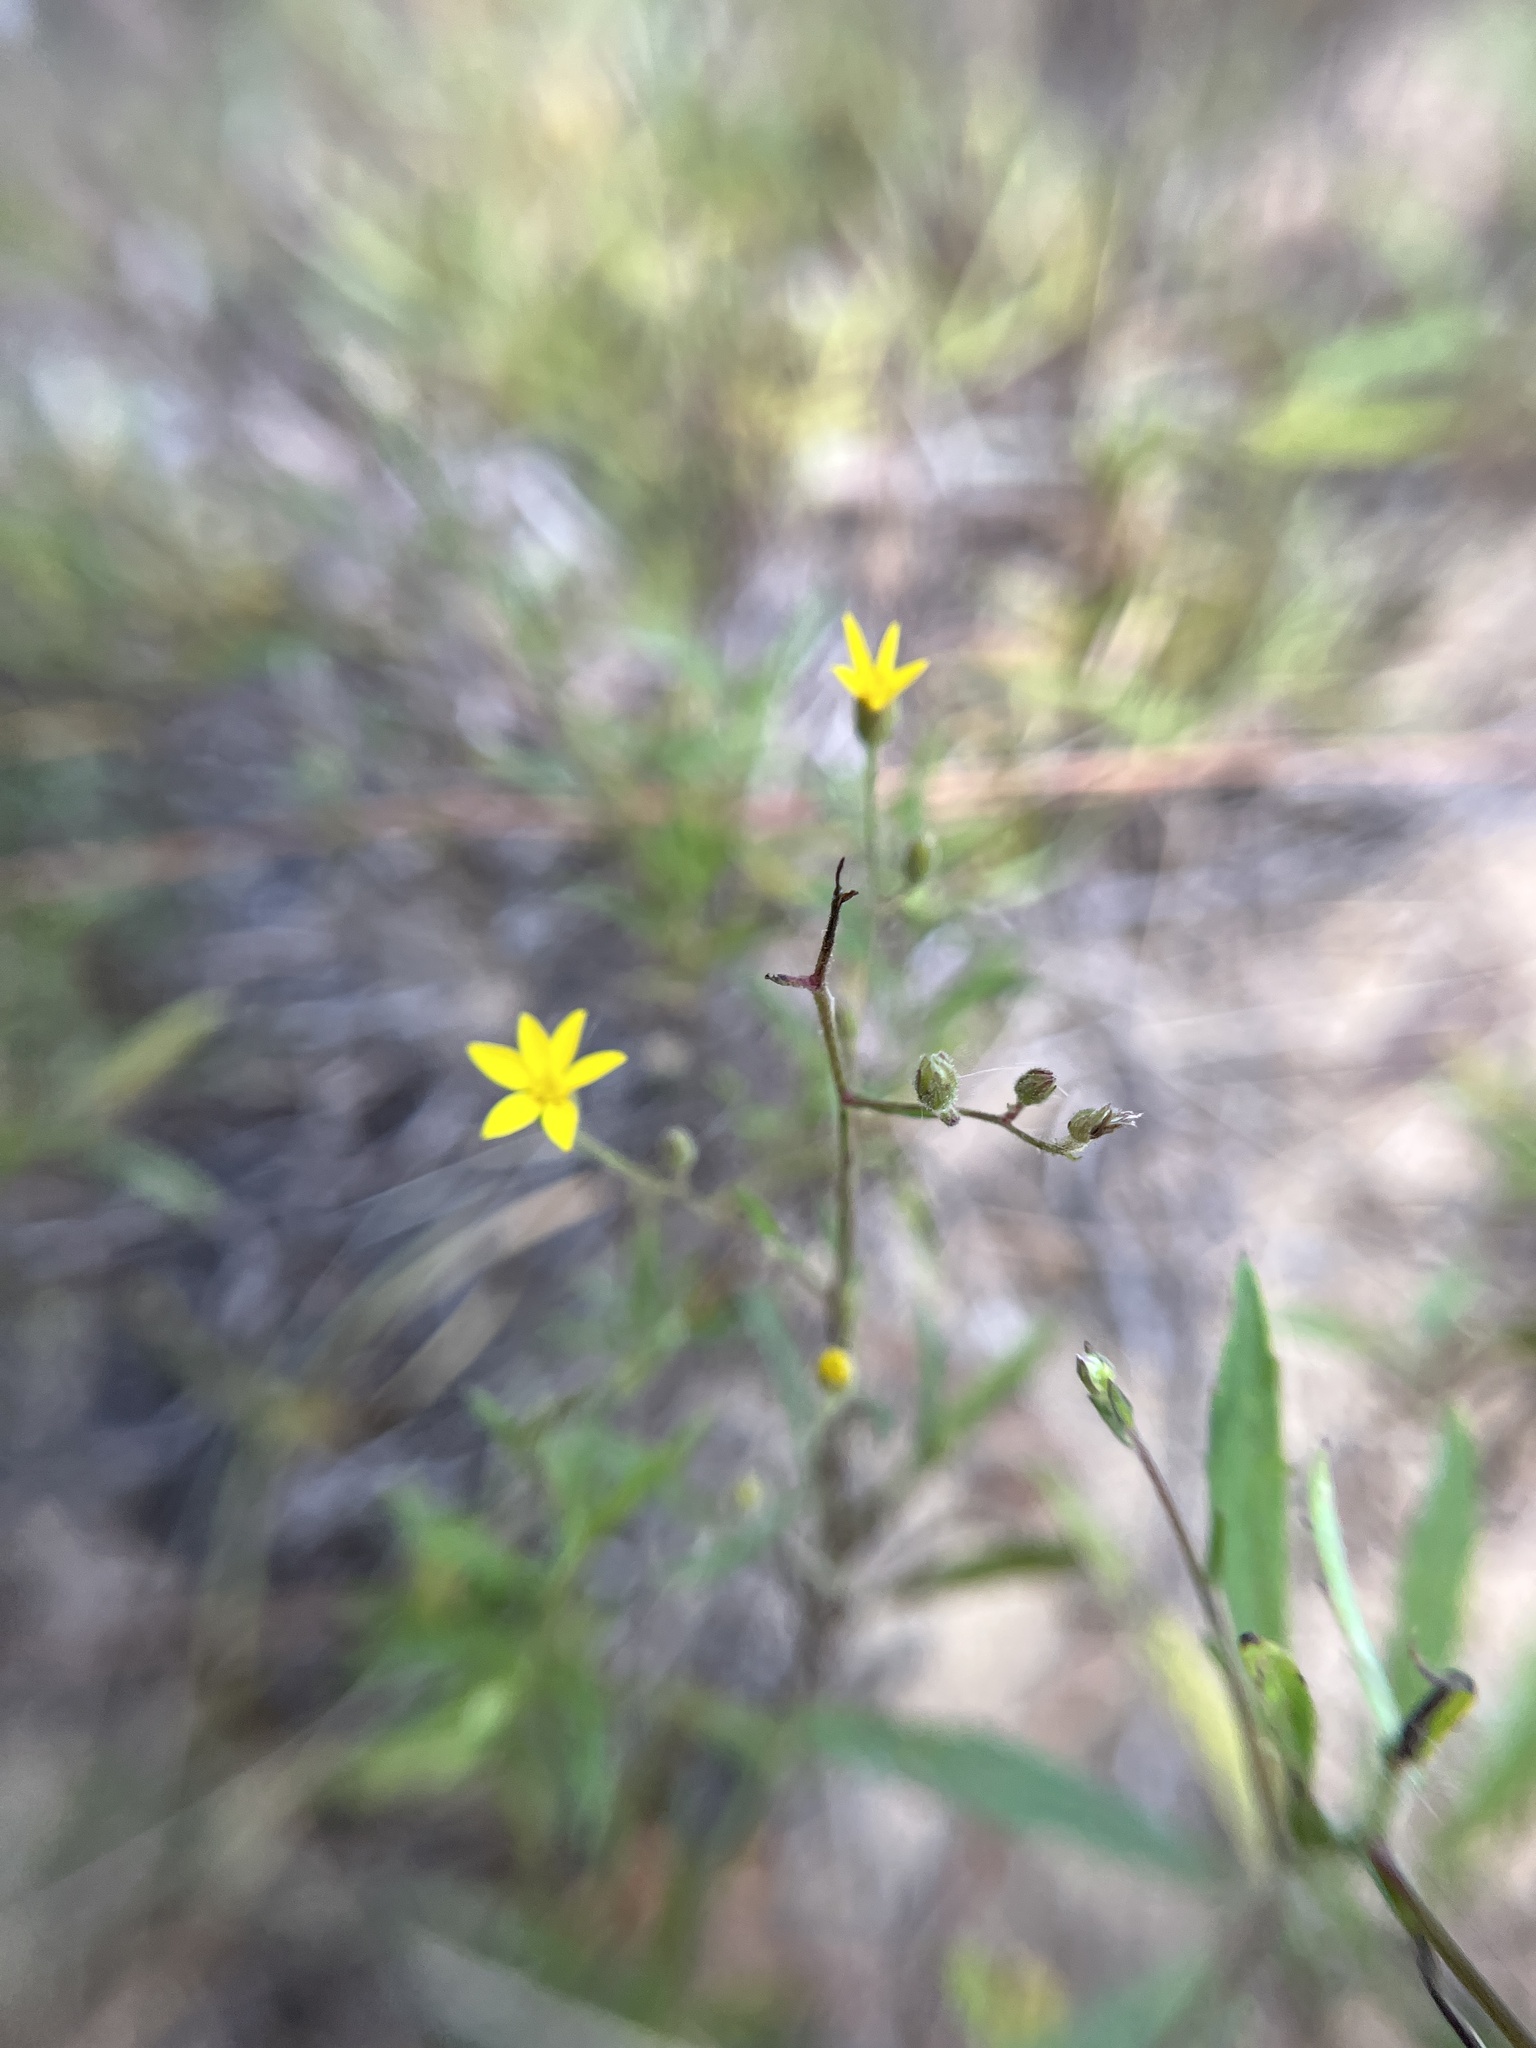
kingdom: Plantae
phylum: Tracheophyta
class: Magnoliopsida
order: Asterales
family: Asteraceae
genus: Croptilon
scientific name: Croptilon divaricatum
